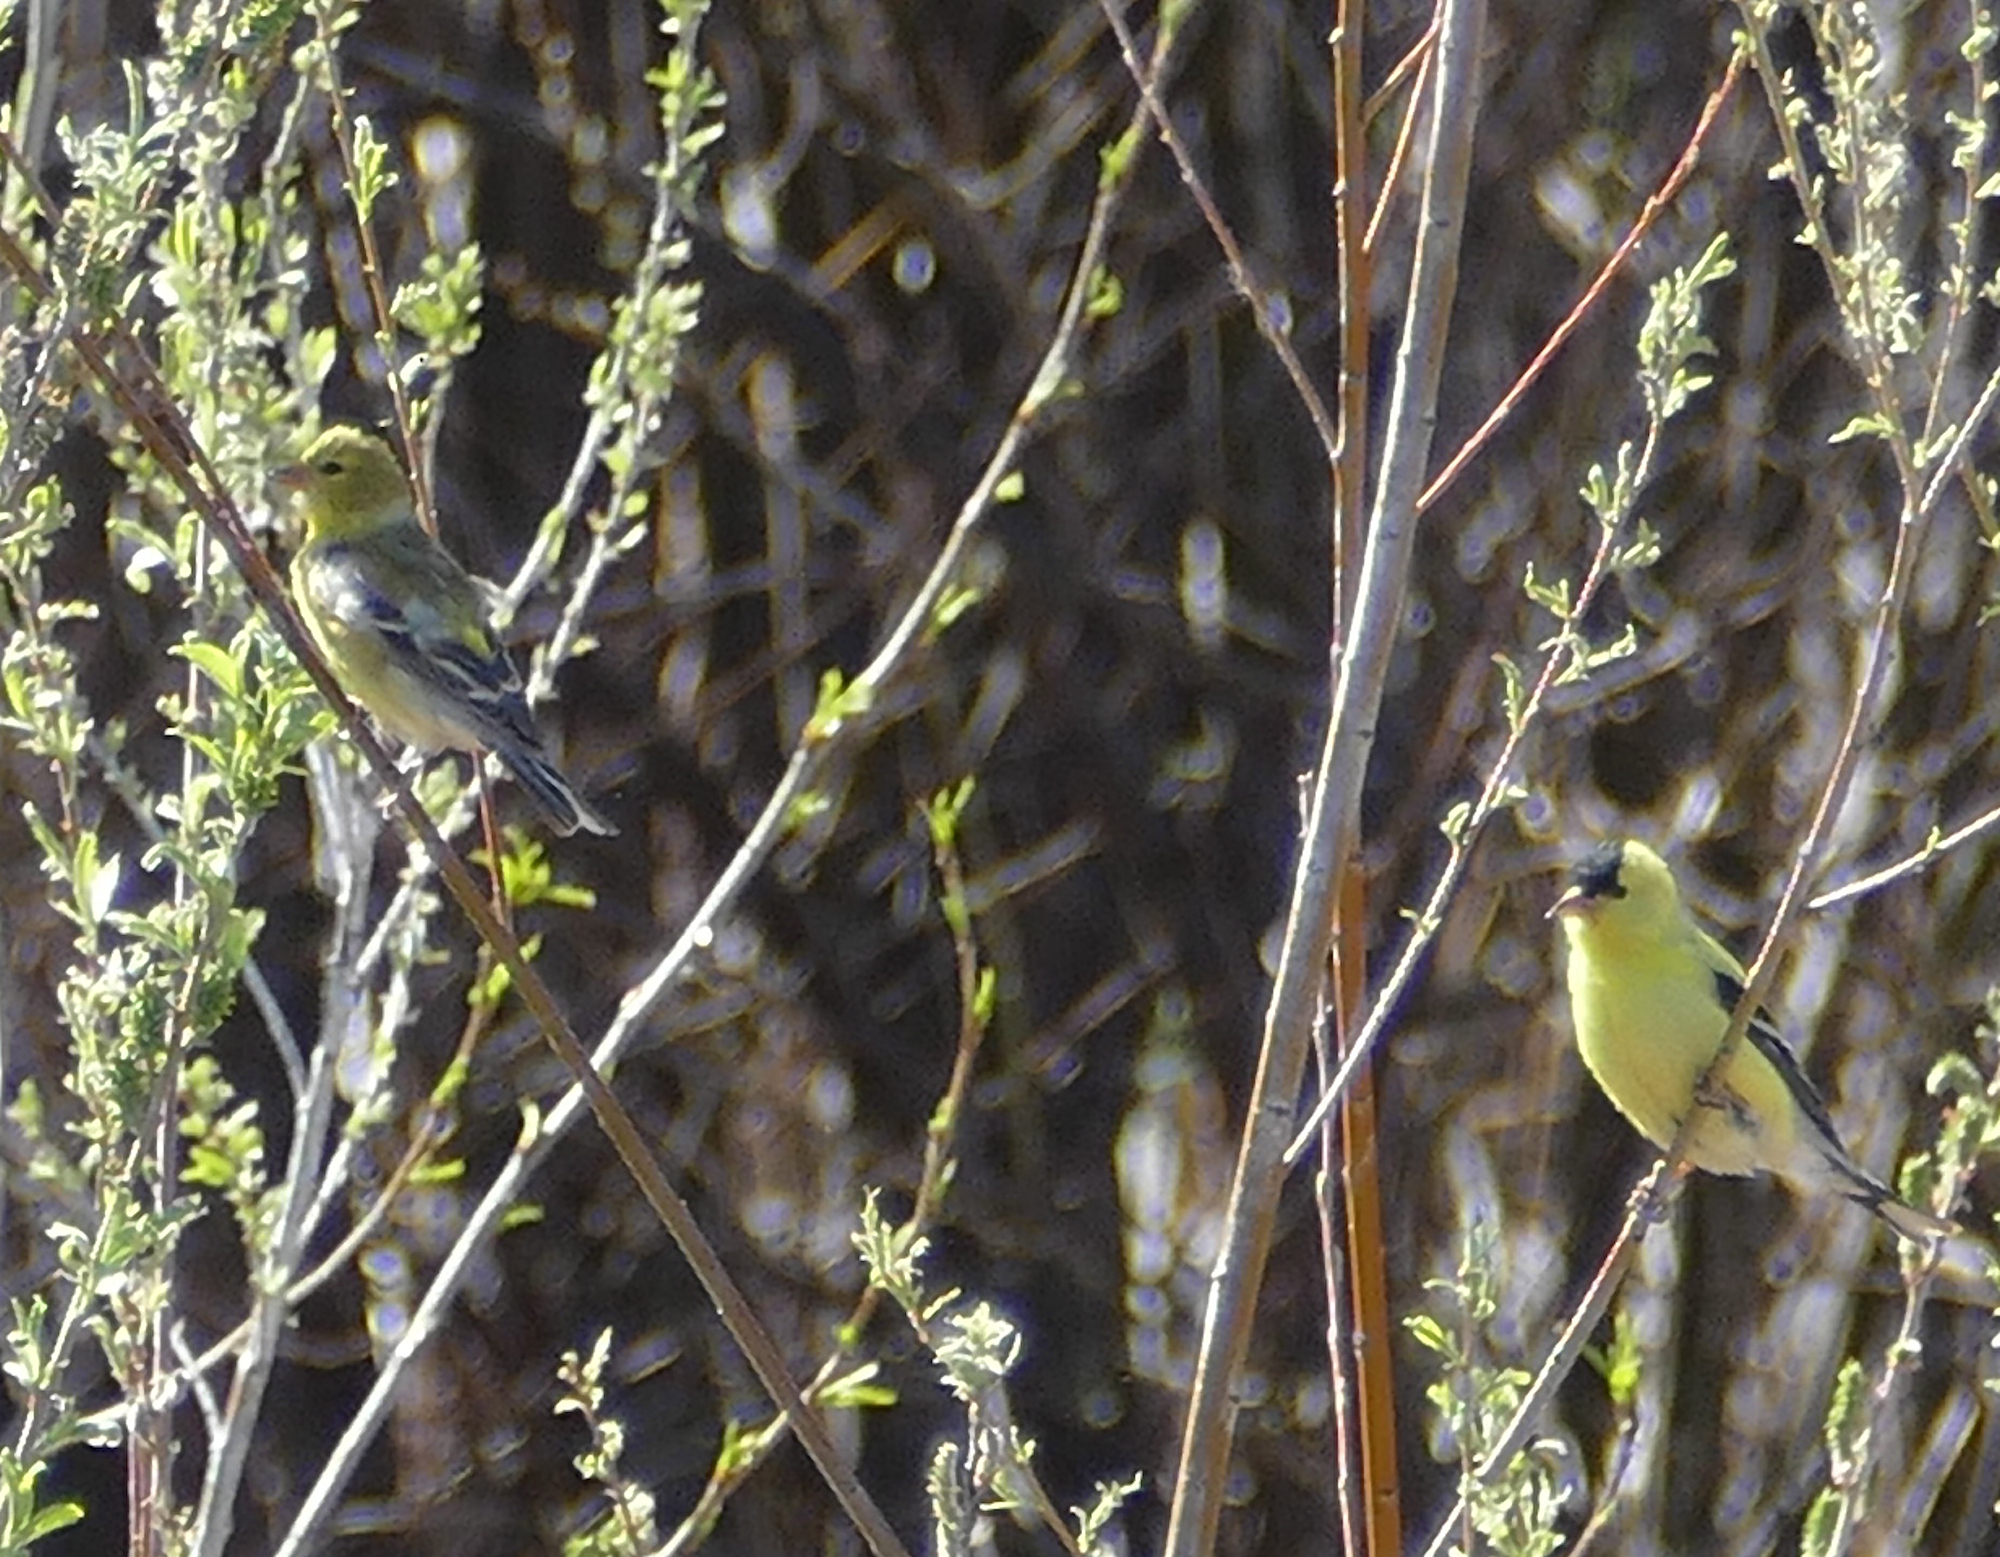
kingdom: Animalia
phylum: Chordata
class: Aves
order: Passeriformes
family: Fringillidae
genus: Spinus
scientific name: Spinus tristis
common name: American goldfinch
